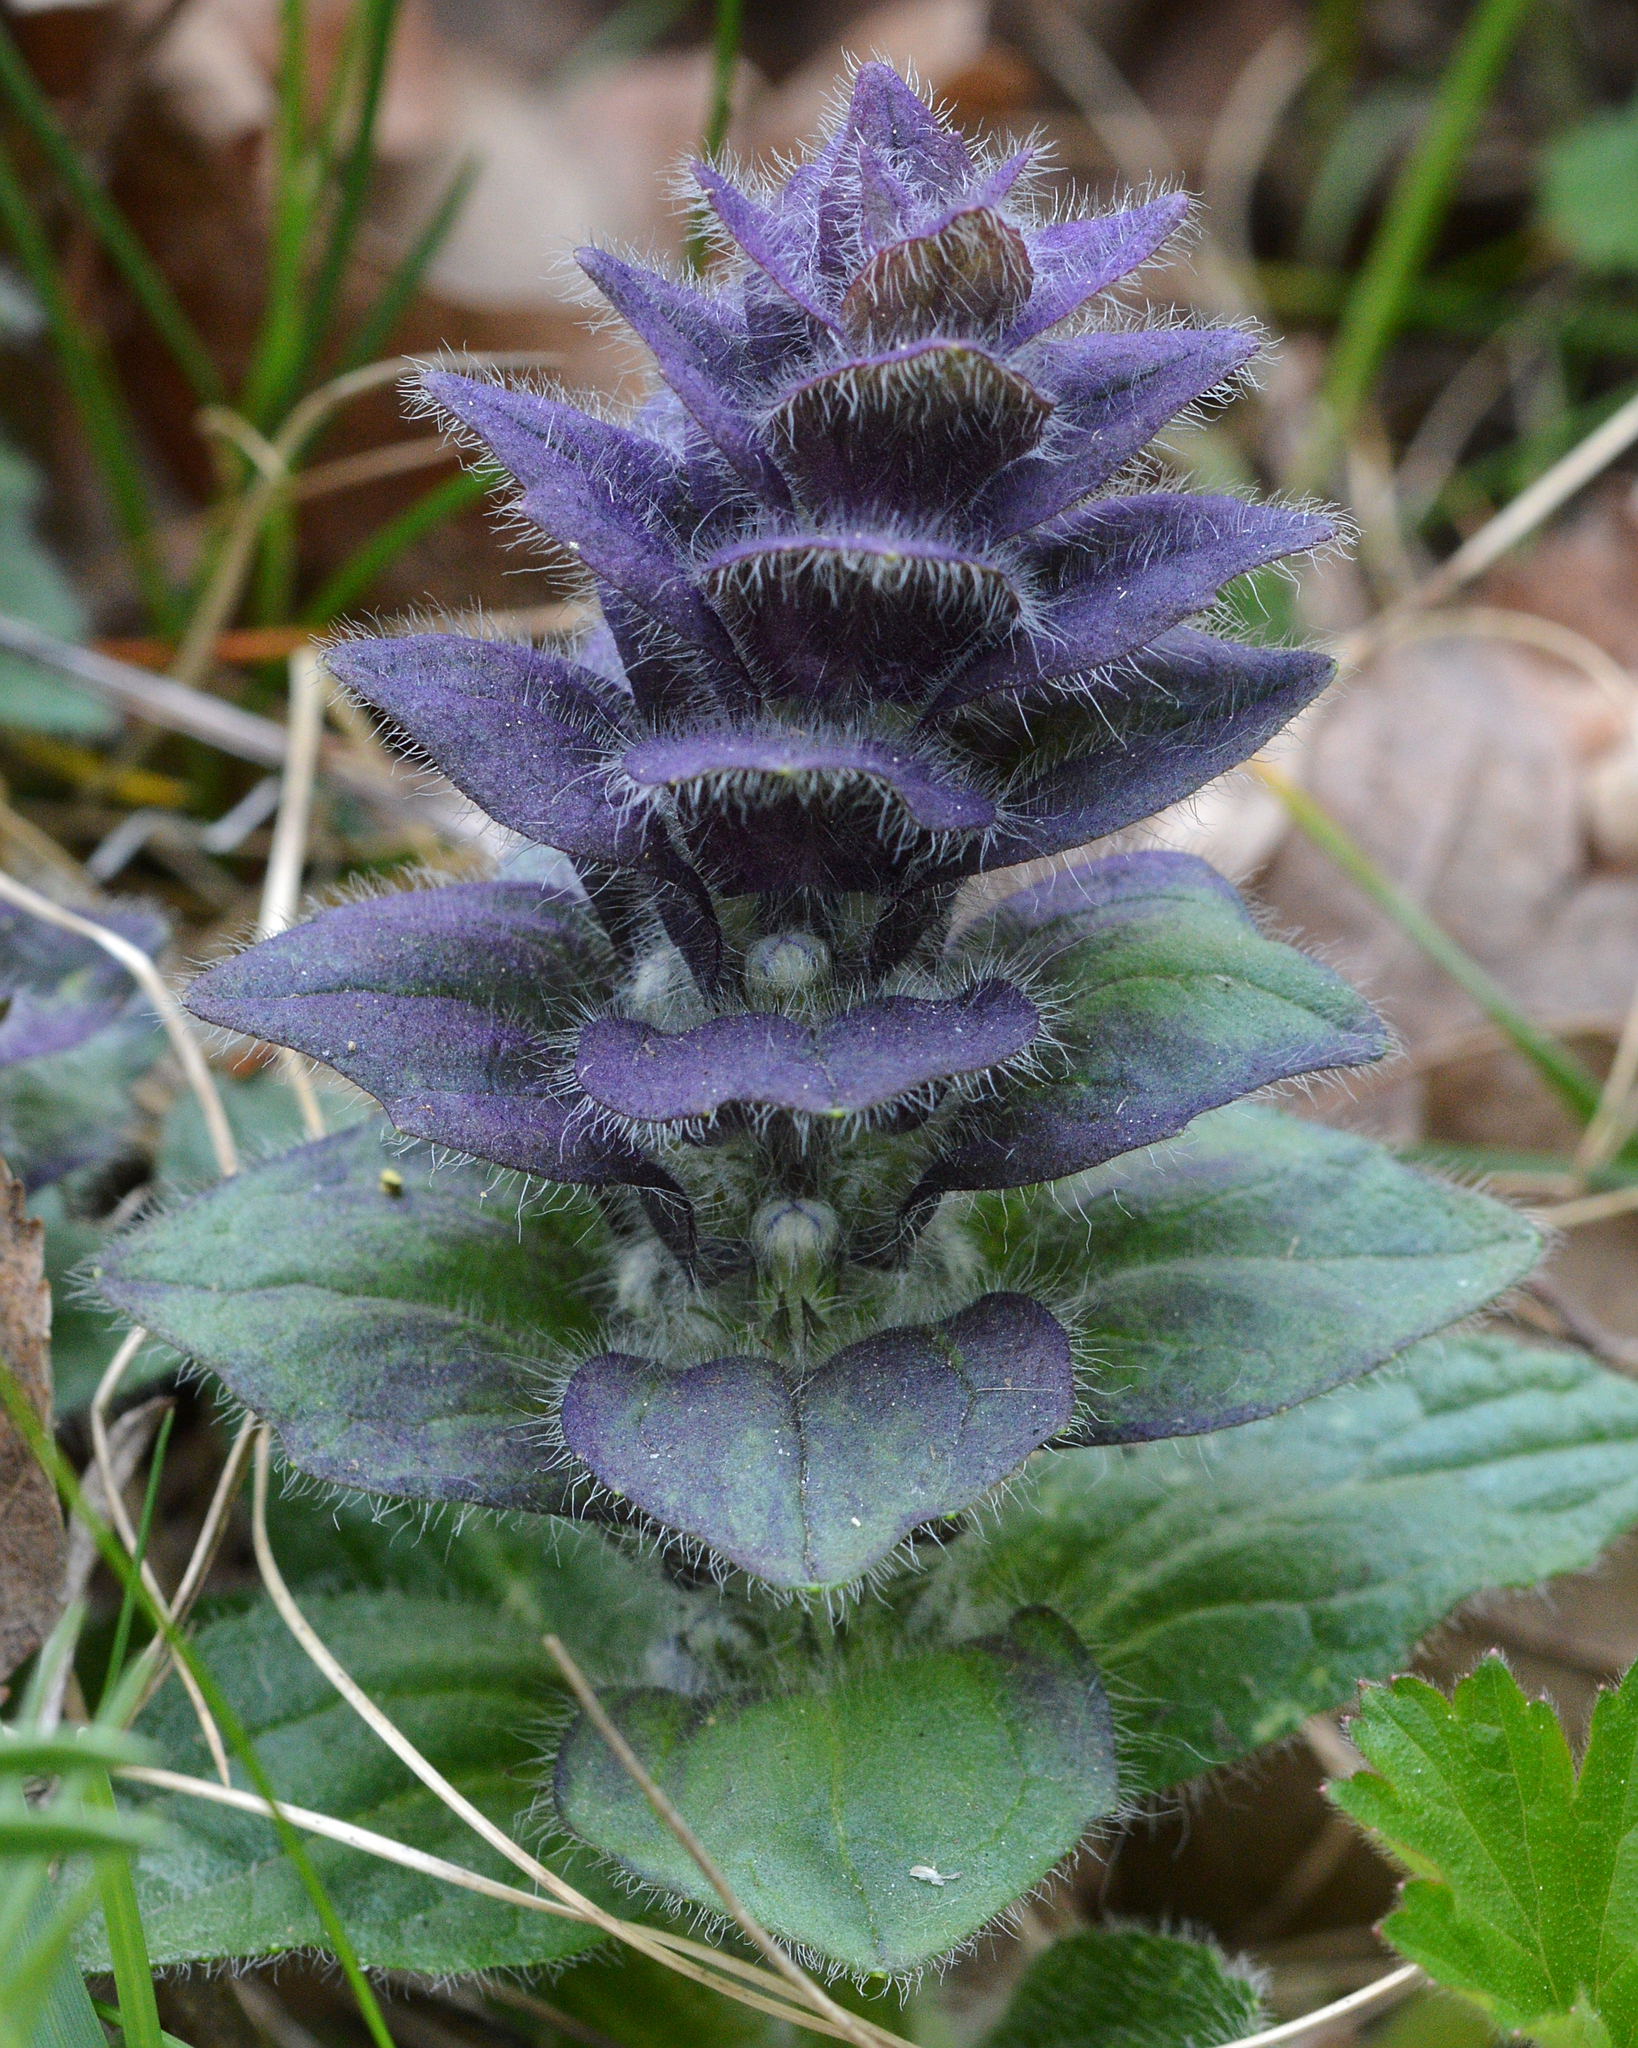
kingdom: Plantae
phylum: Tracheophyta
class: Magnoliopsida
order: Lamiales
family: Lamiaceae
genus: Ajuga
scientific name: Ajuga pyramidalis
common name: Pyramid bugle
